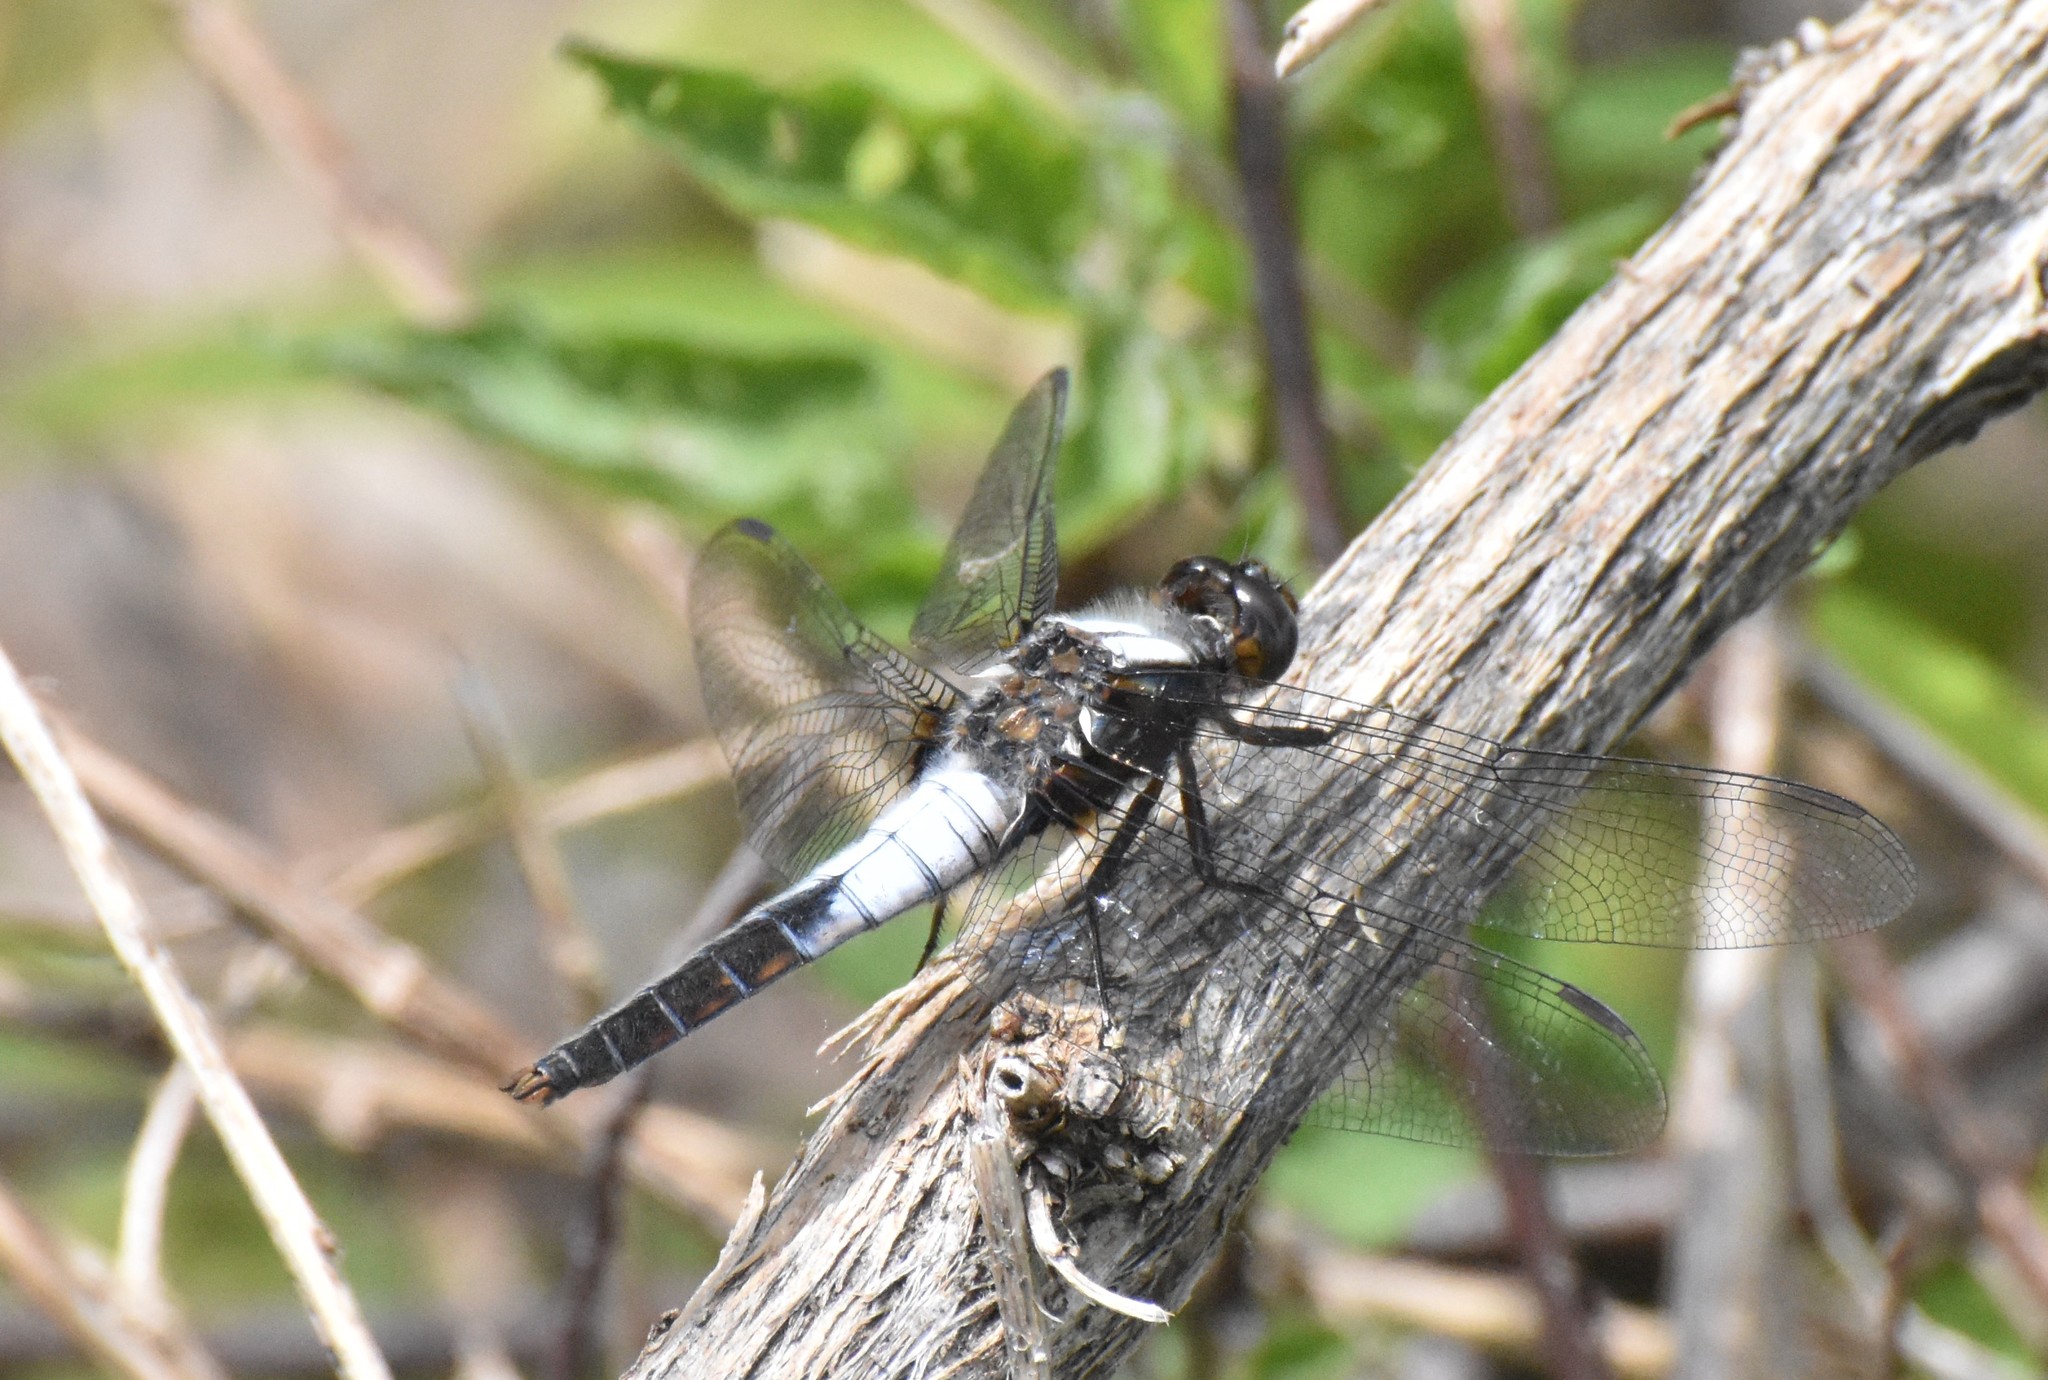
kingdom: Animalia
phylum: Arthropoda
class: Insecta
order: Odonata
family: Libellulidae
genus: Ladona
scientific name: Ladona julia
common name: Chalk-fronted corporal
